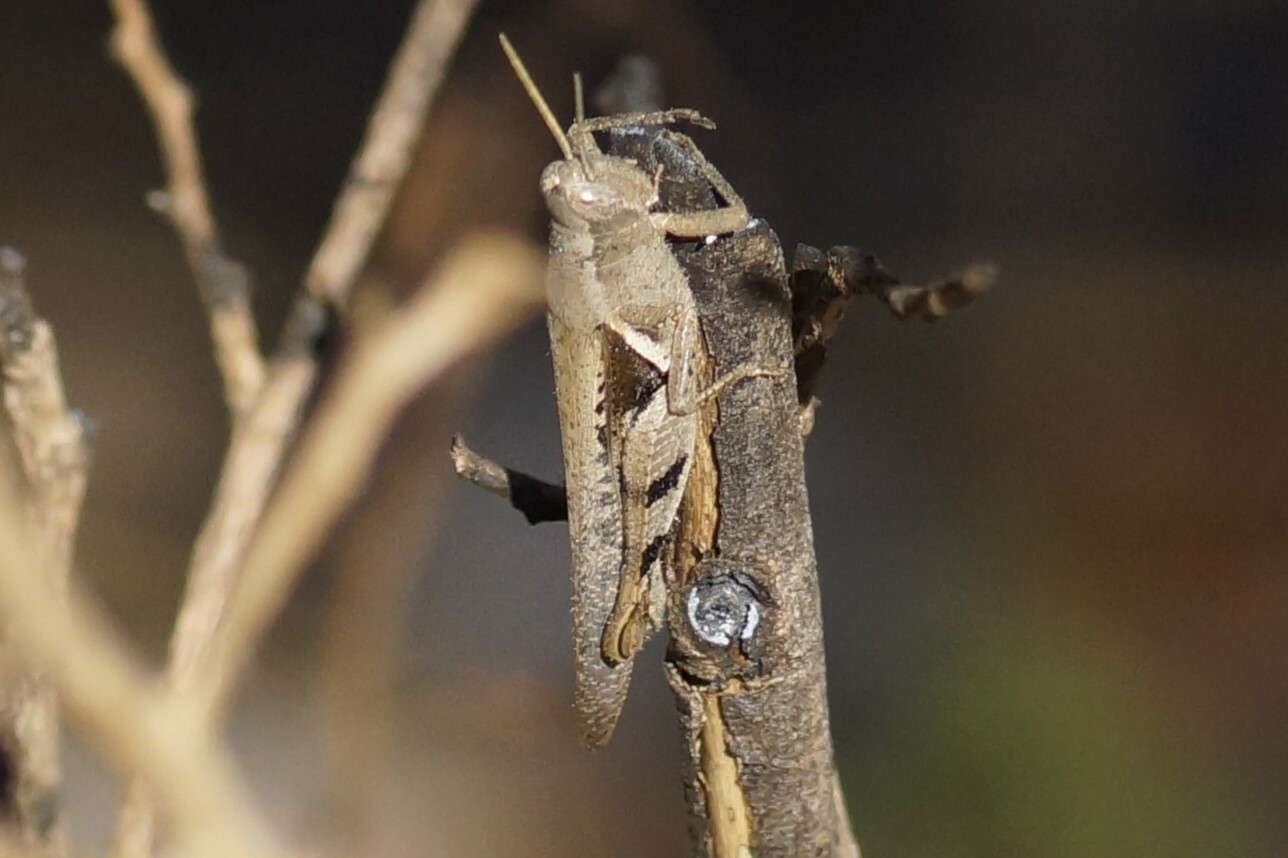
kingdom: Animalia
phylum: Arthropoda
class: Insecta
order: Orthoptera
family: Acrididae
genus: Stenocatantops
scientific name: Stenocatantops angustifrons
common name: Common tropical sharptail
